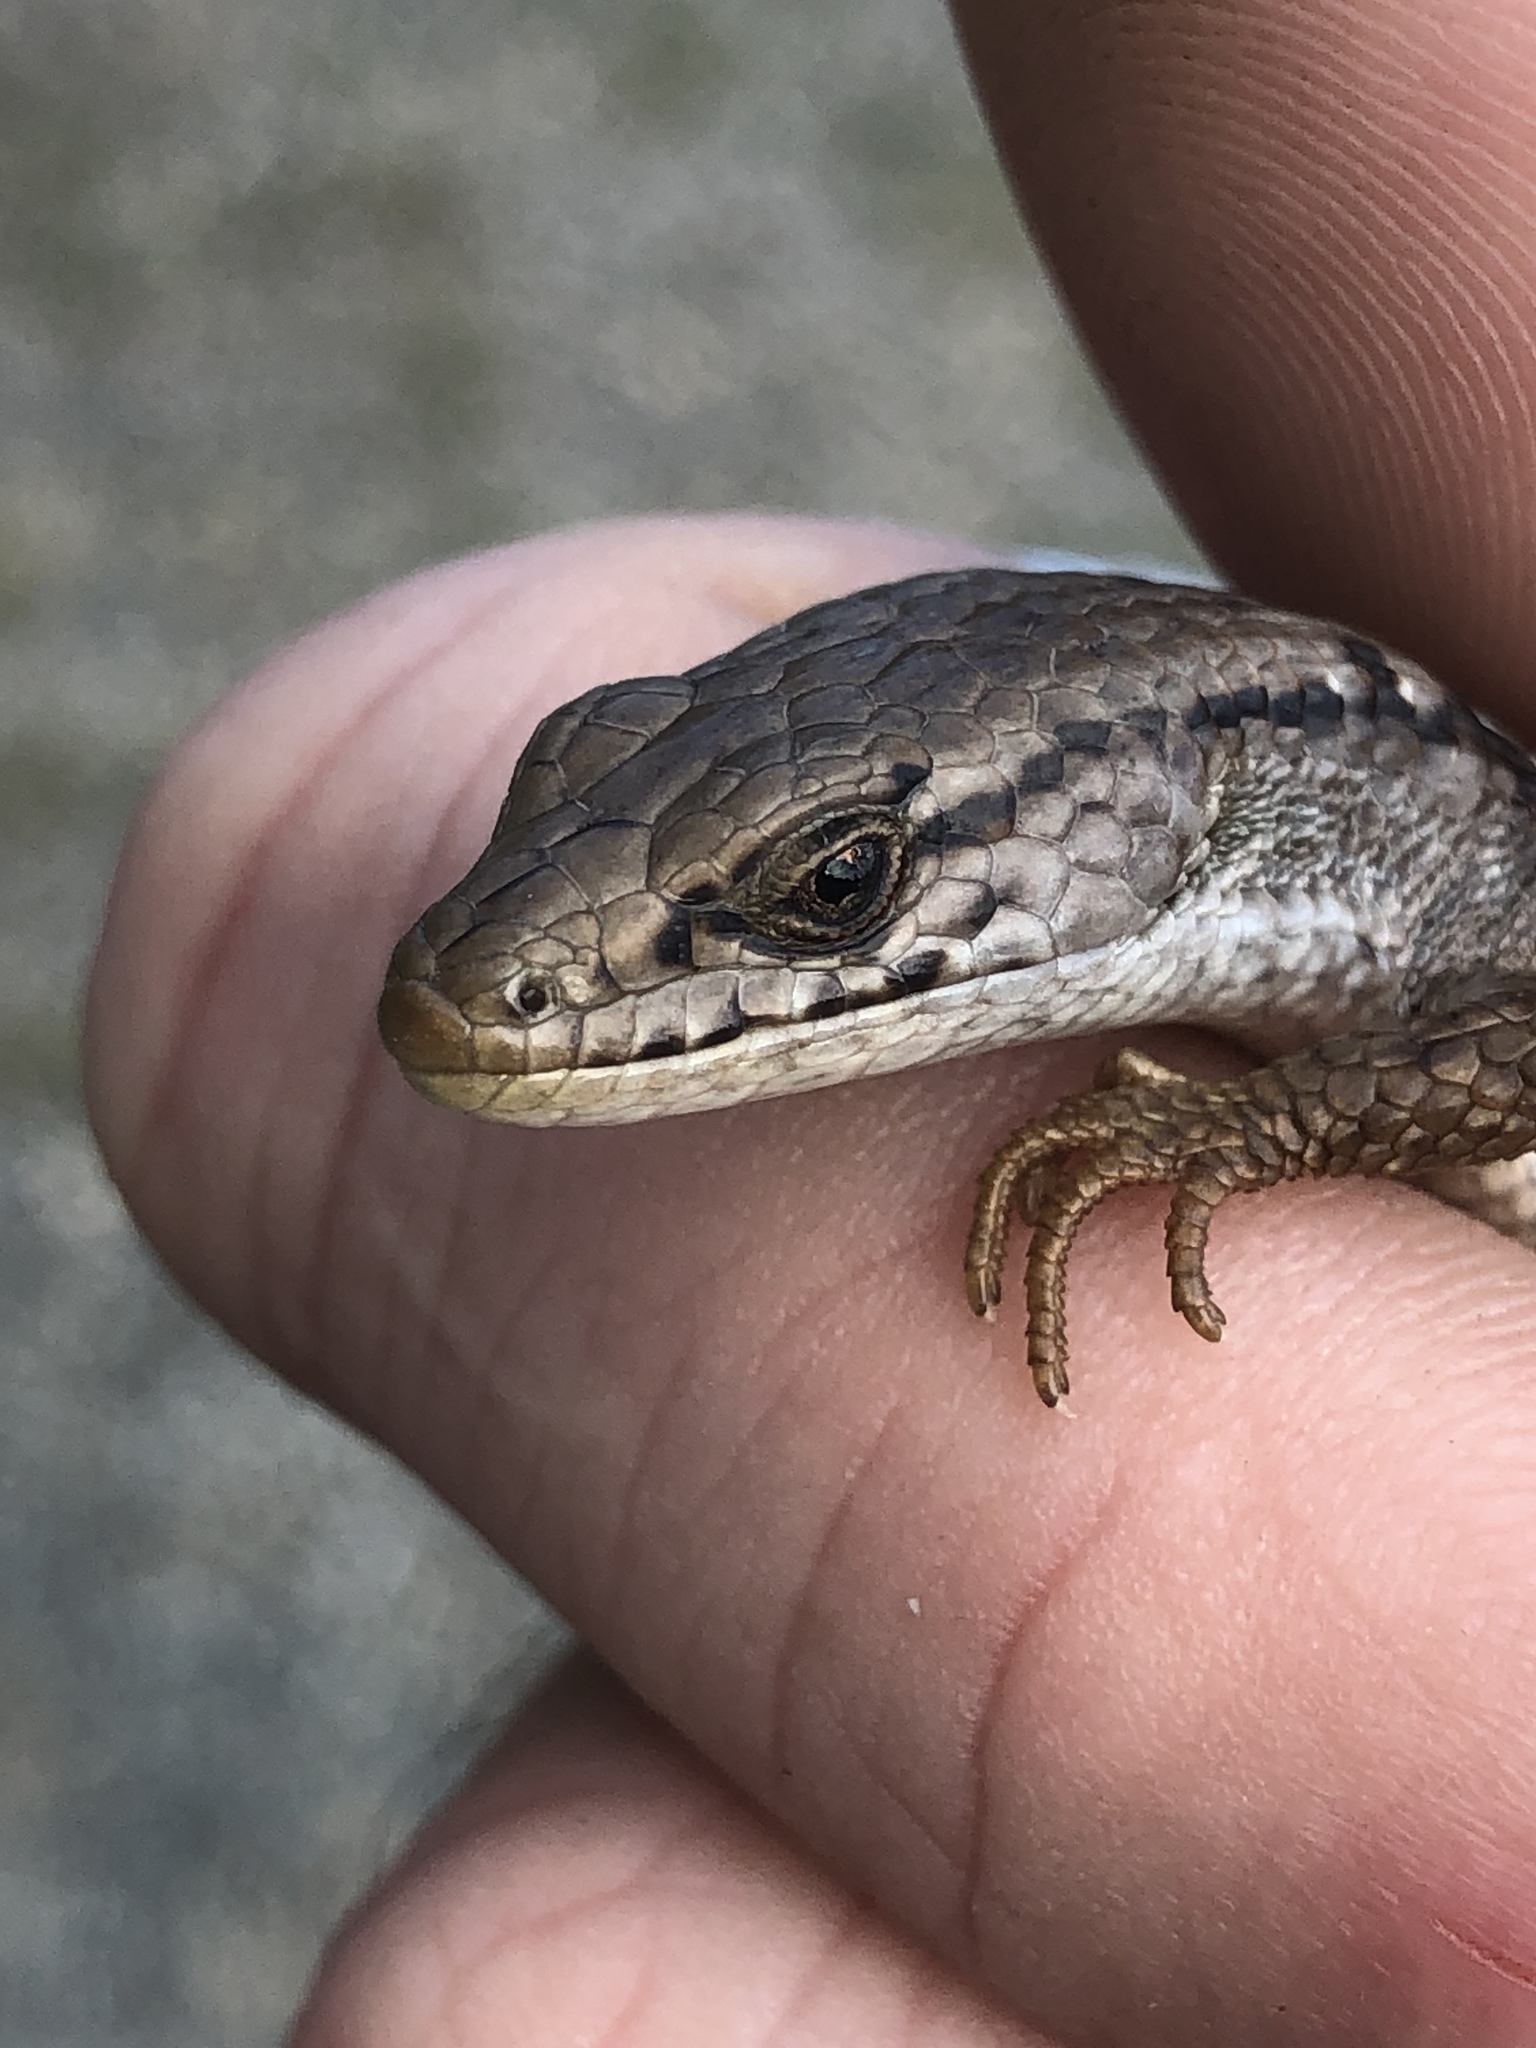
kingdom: Animalia
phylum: Chordata
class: Squamata
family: Anguidae
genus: Elgaria
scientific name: Elgaria coerulea
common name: Northern alligator lizard
